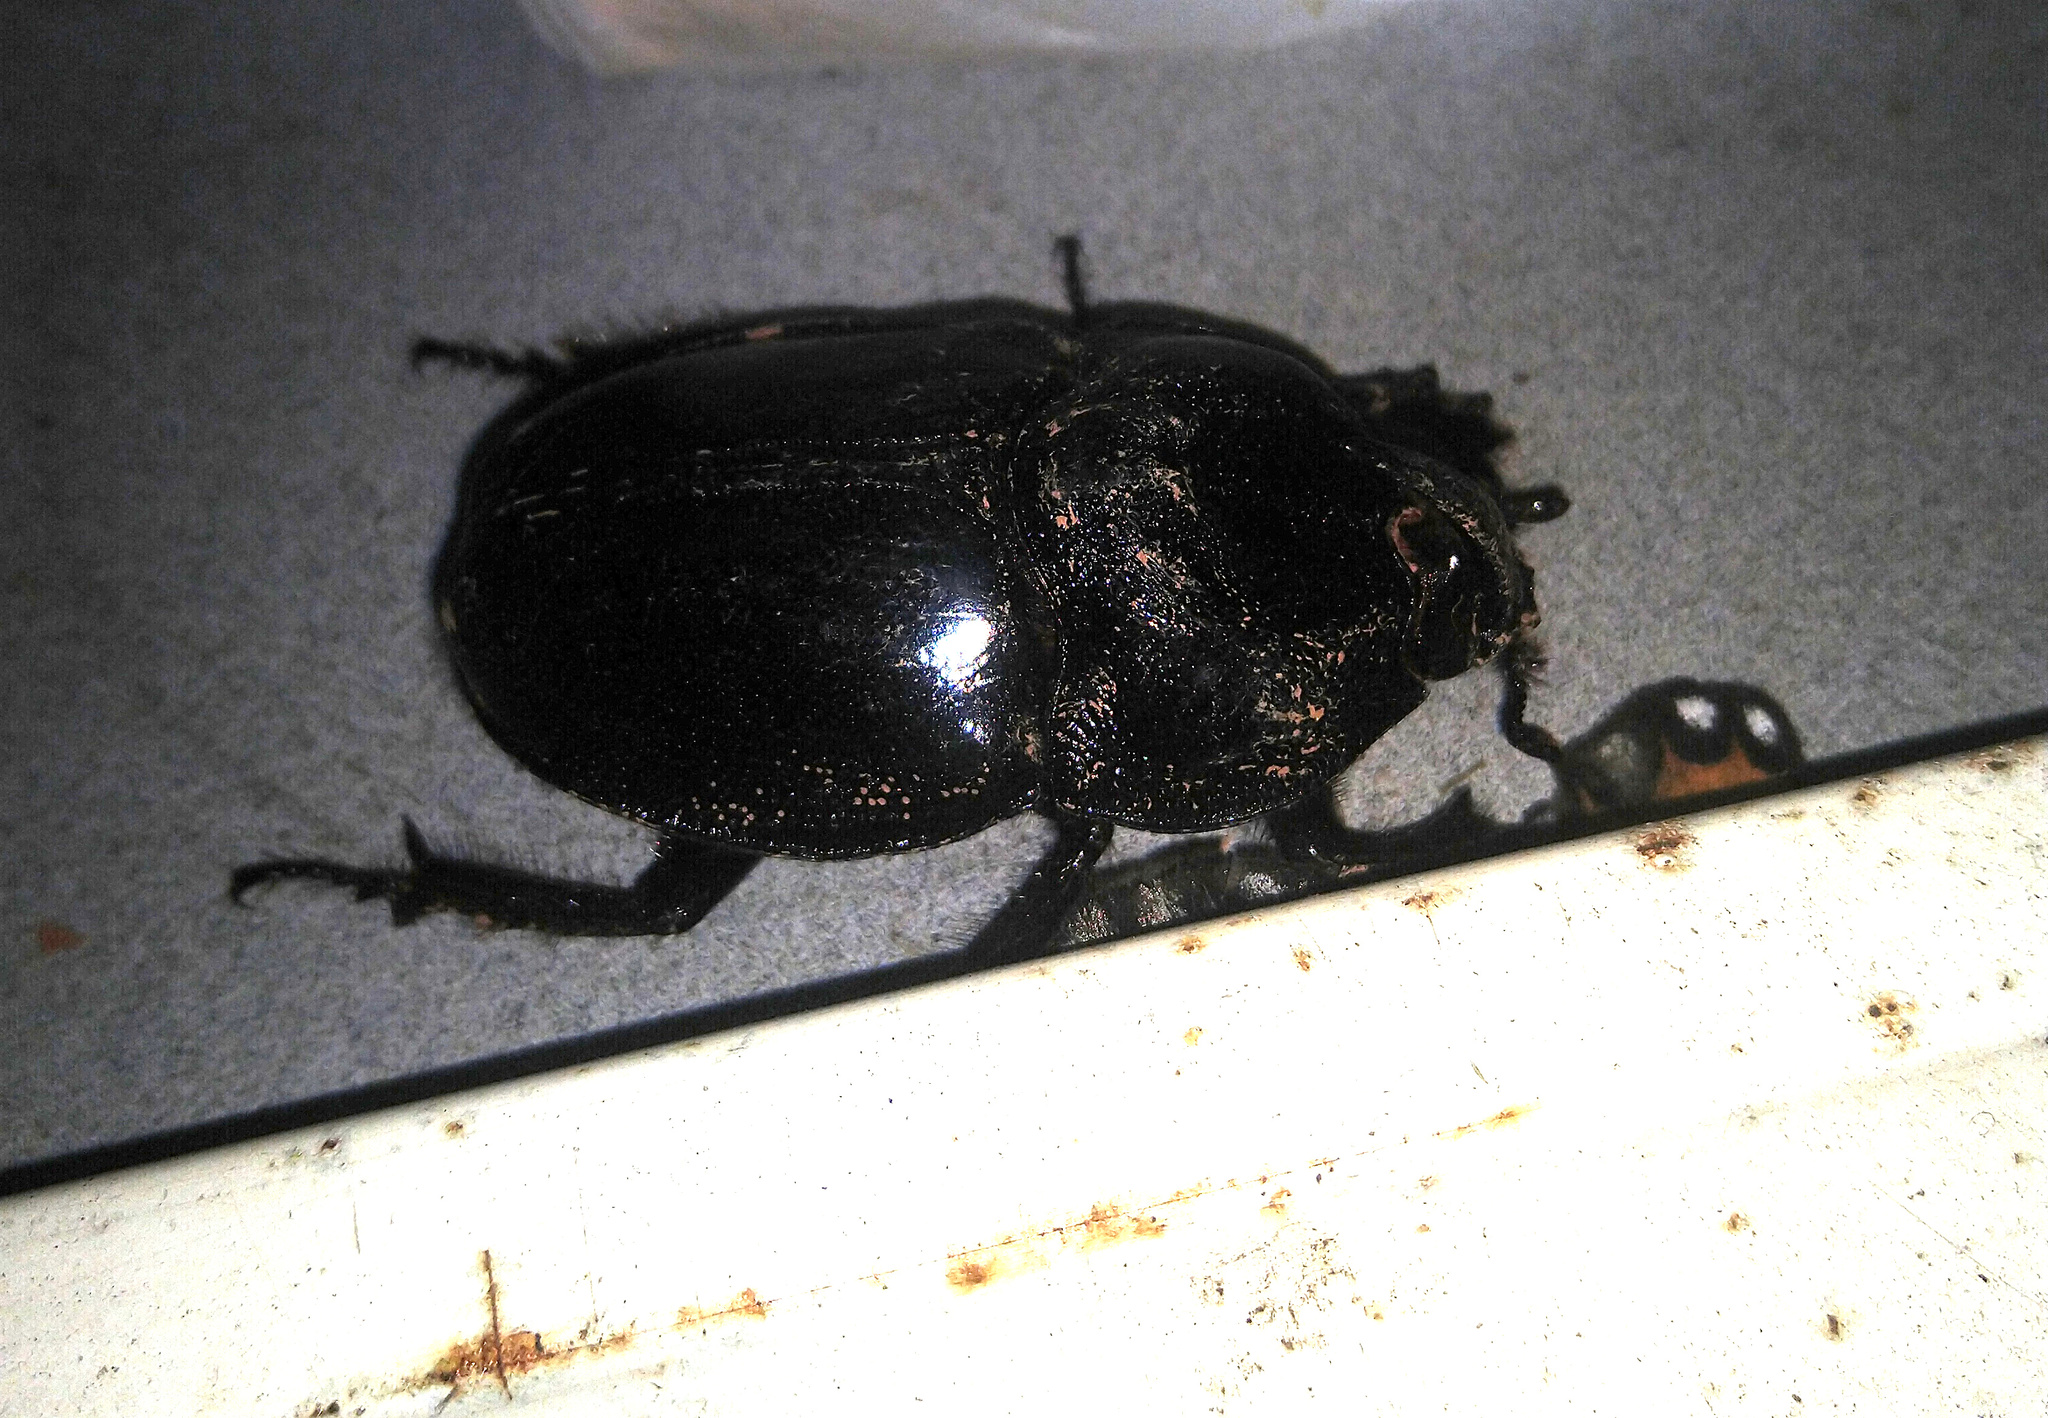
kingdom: Animalia
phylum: Arthropoda
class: Insecta
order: Coleoptera
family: Scarabaeidae
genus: Enema
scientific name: Enema pan
